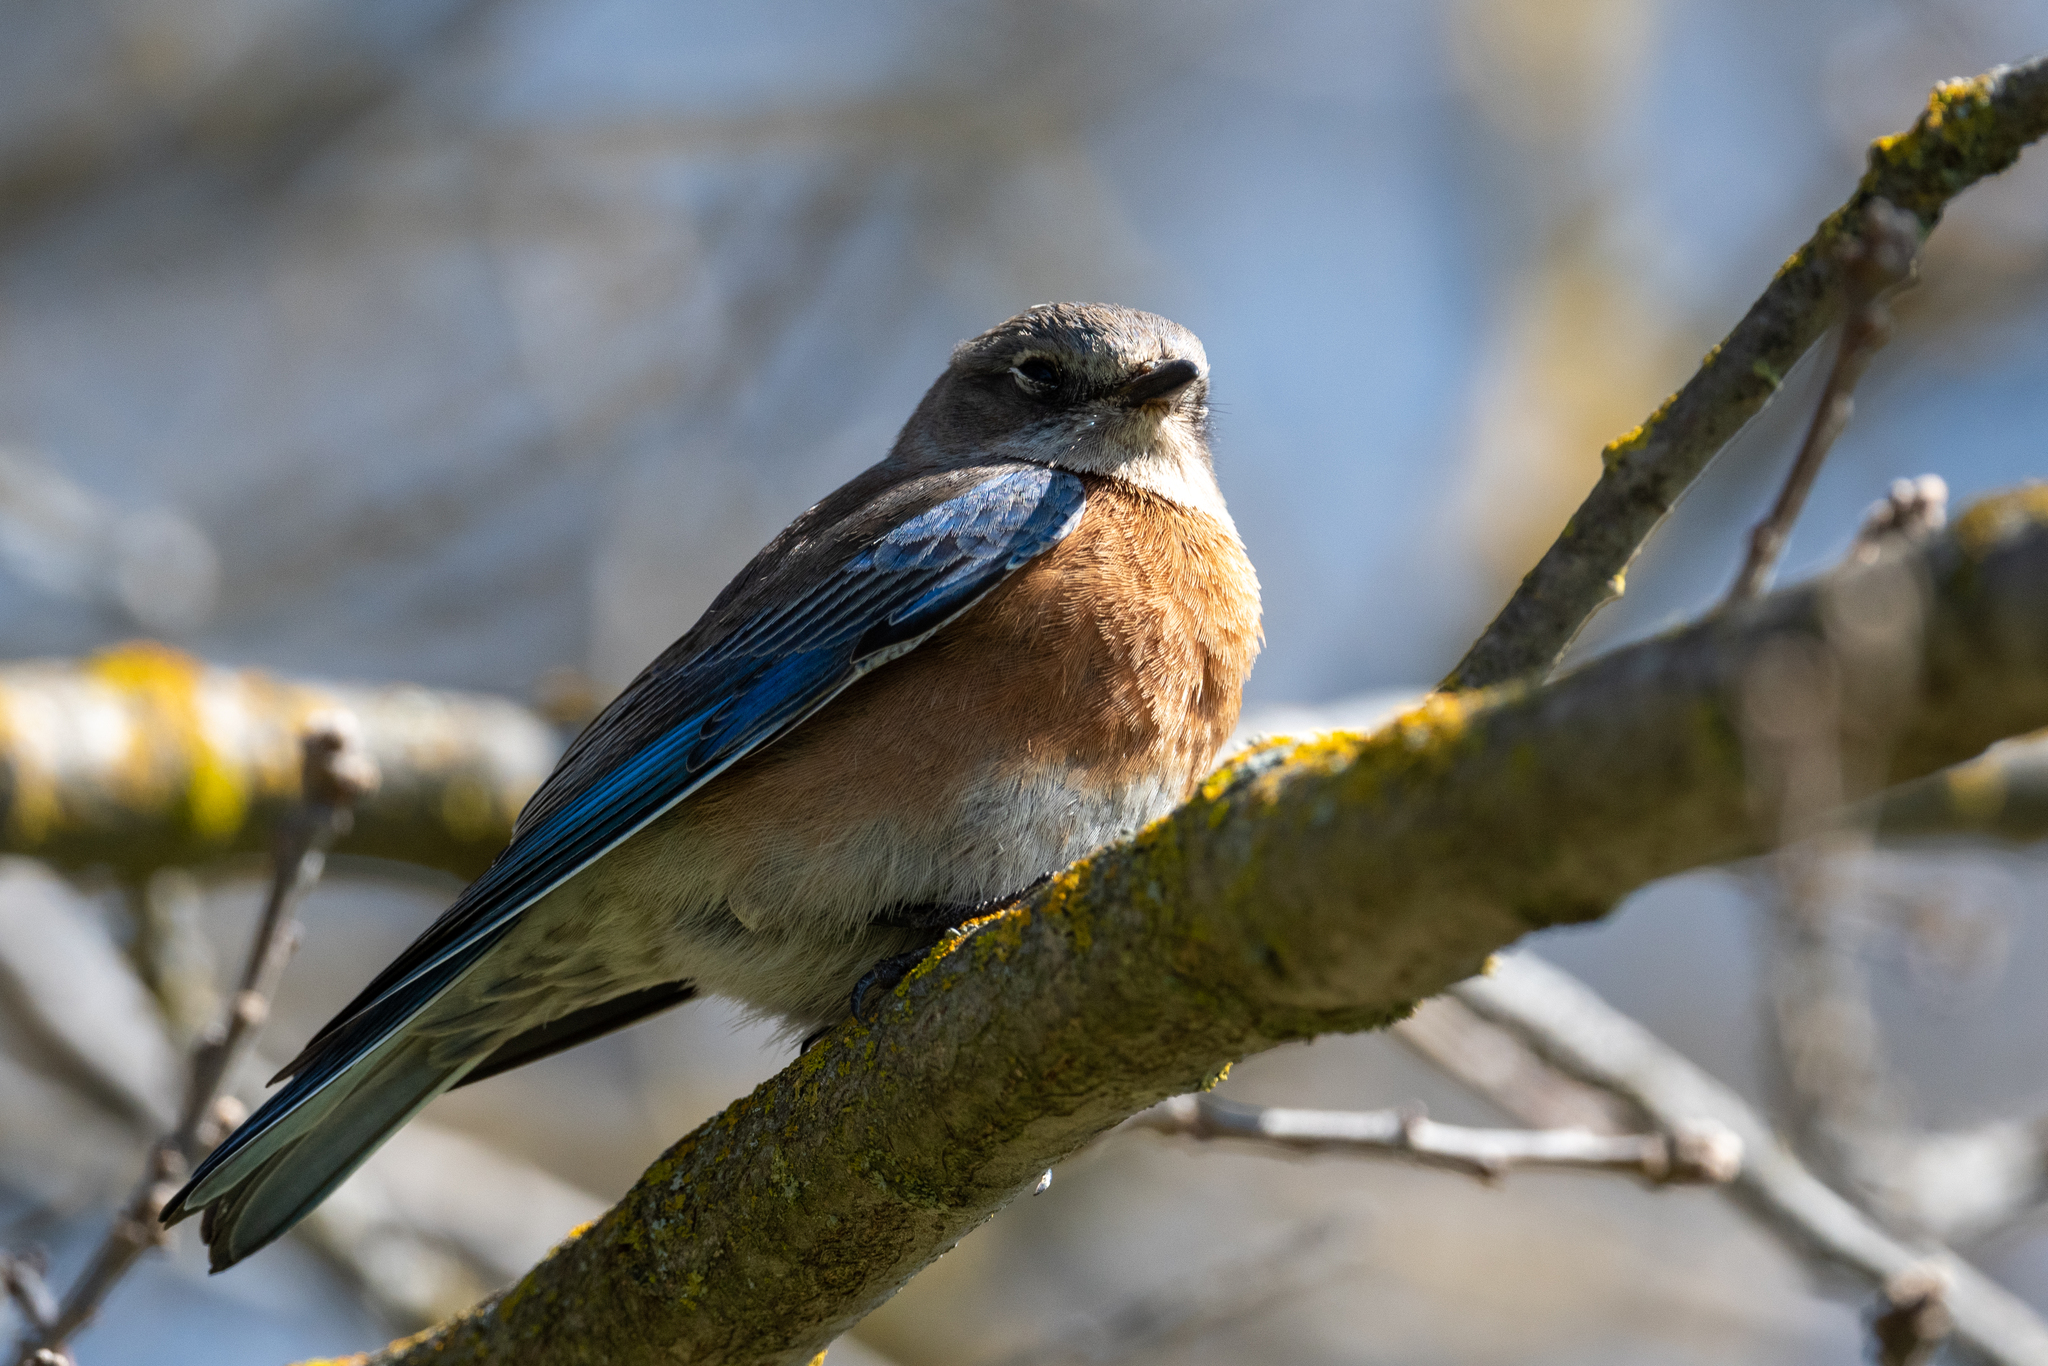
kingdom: Animalia
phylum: Chordata
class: Aves
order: Passeriformes
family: Turdidae
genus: Sialia
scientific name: Sialia mexicana
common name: Western bluebird
